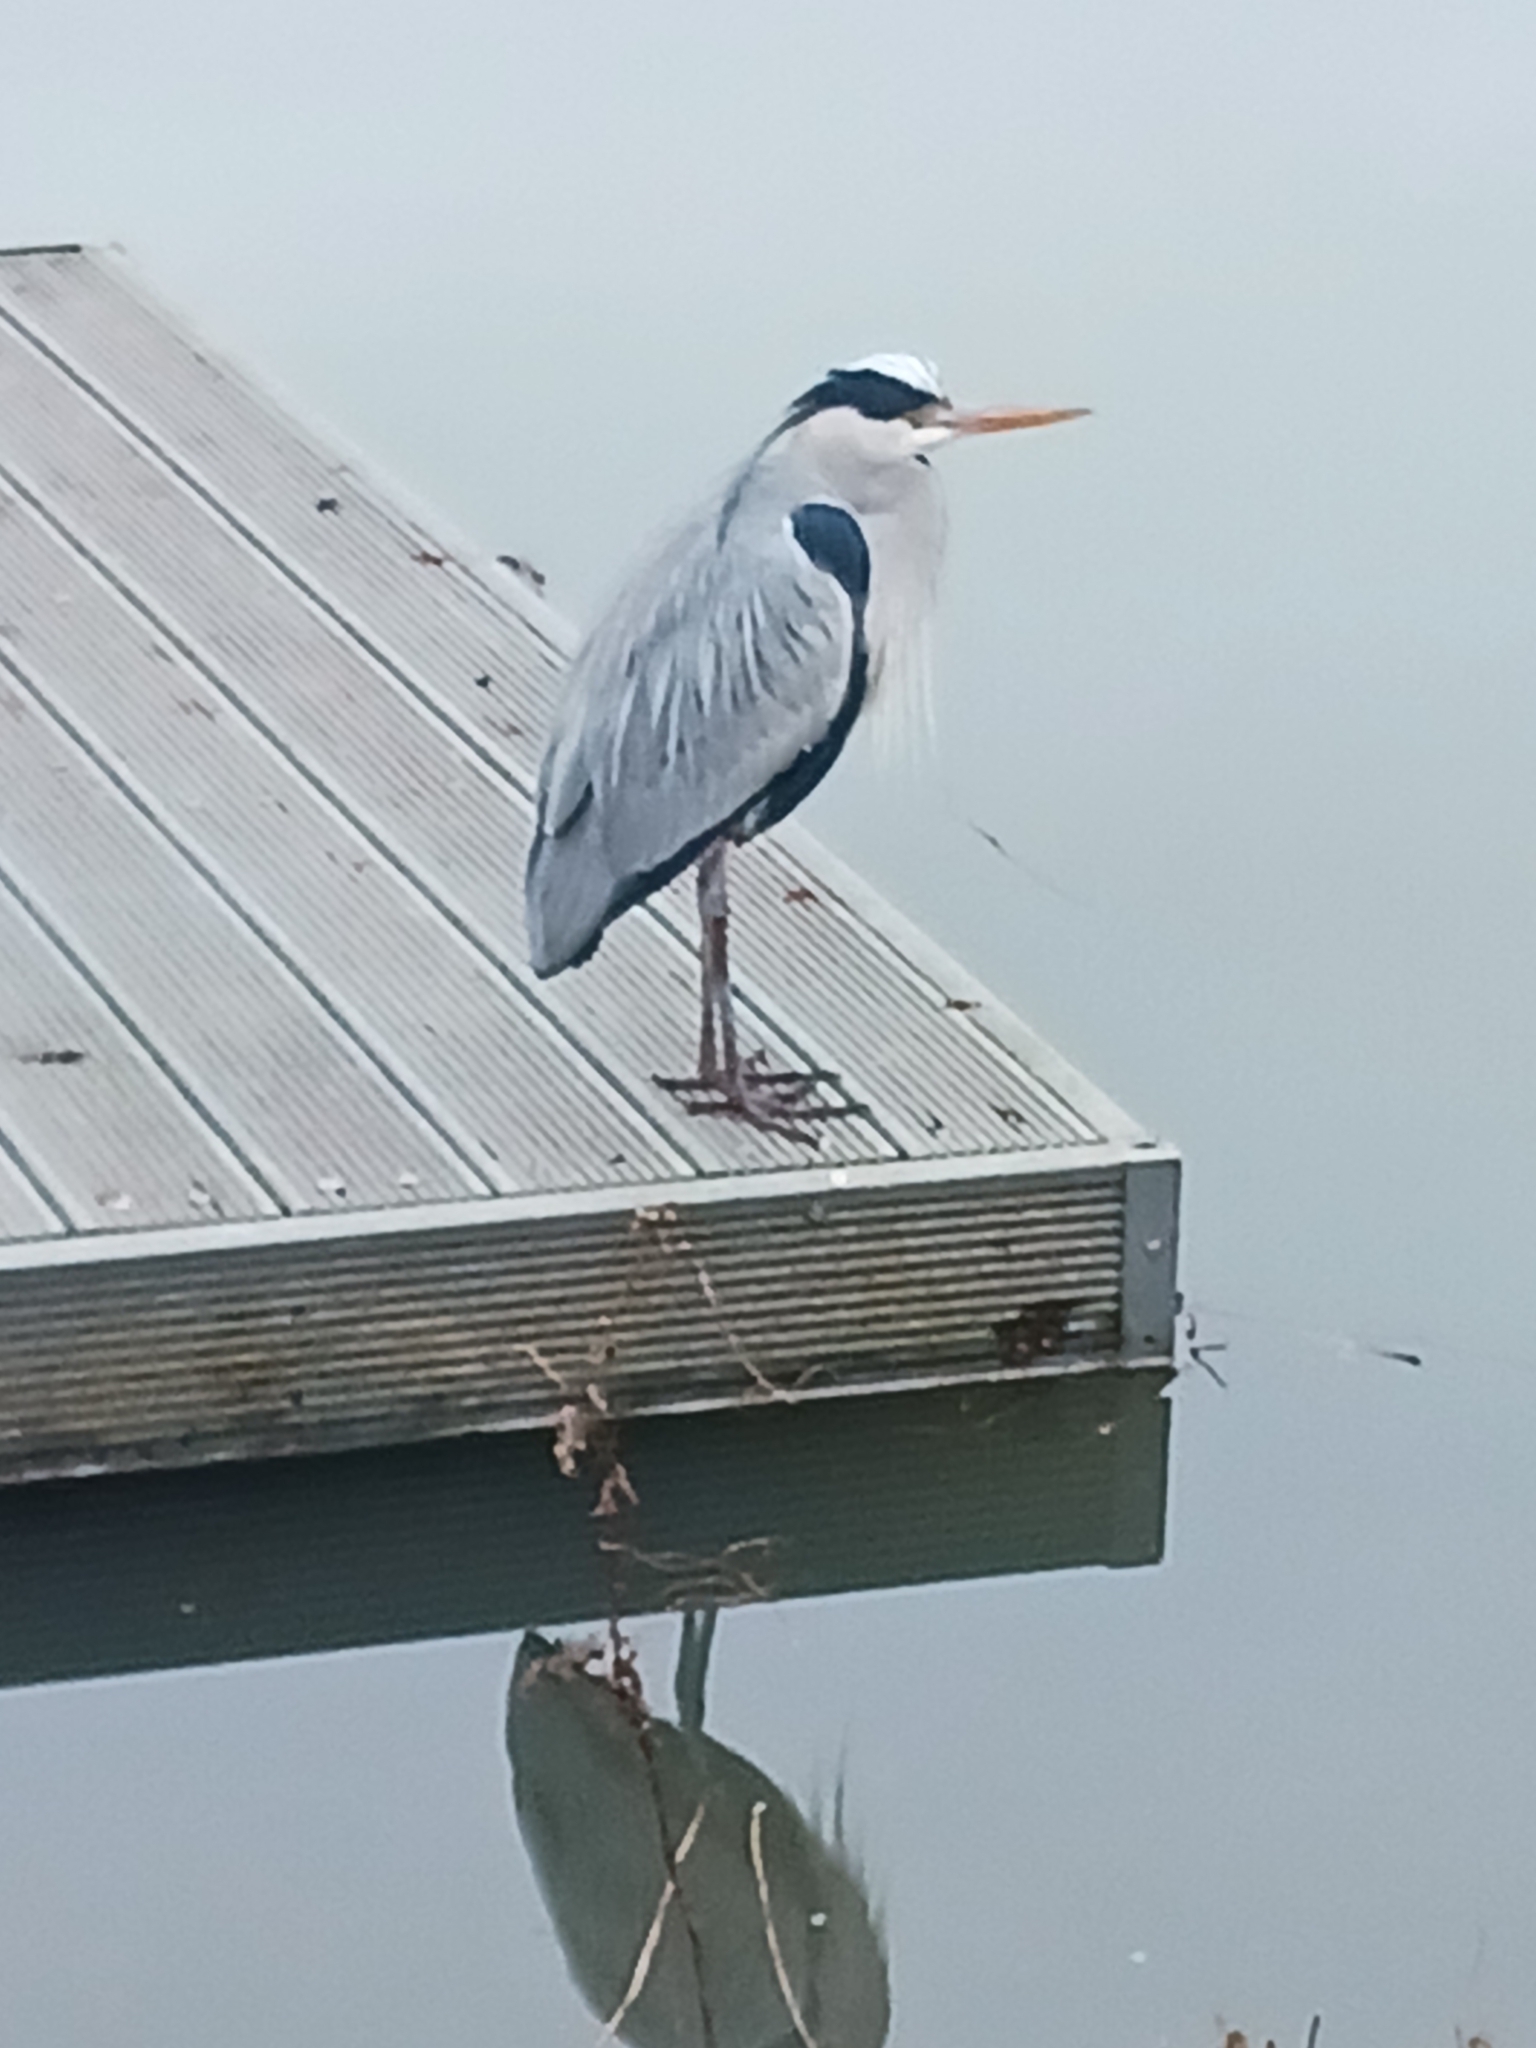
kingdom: Animalia
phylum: Chordata
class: Aves
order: Pelecaniformes
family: Ardeidae
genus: Ardea
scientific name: Ardea cinerea
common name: Grey heron
